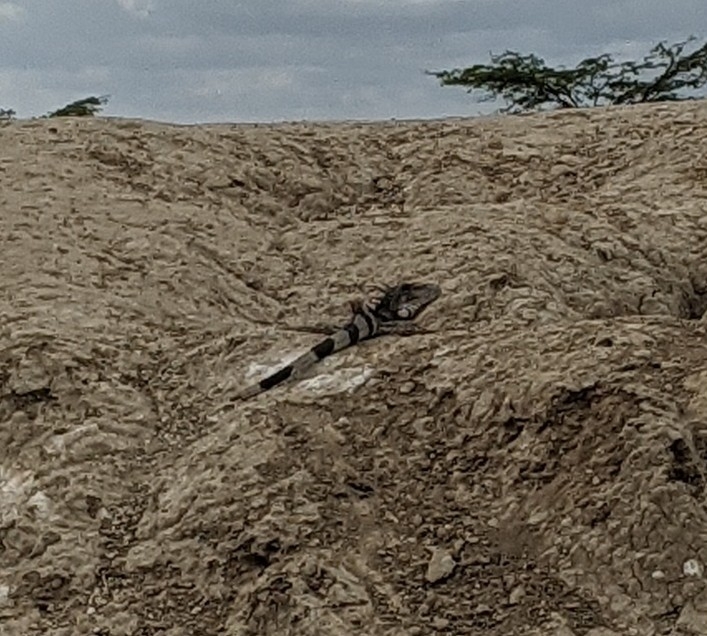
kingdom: Animalia
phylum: Chordata
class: Squamata
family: Iguanidae
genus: Iguana
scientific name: Iguana iguana
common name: Green iguana
